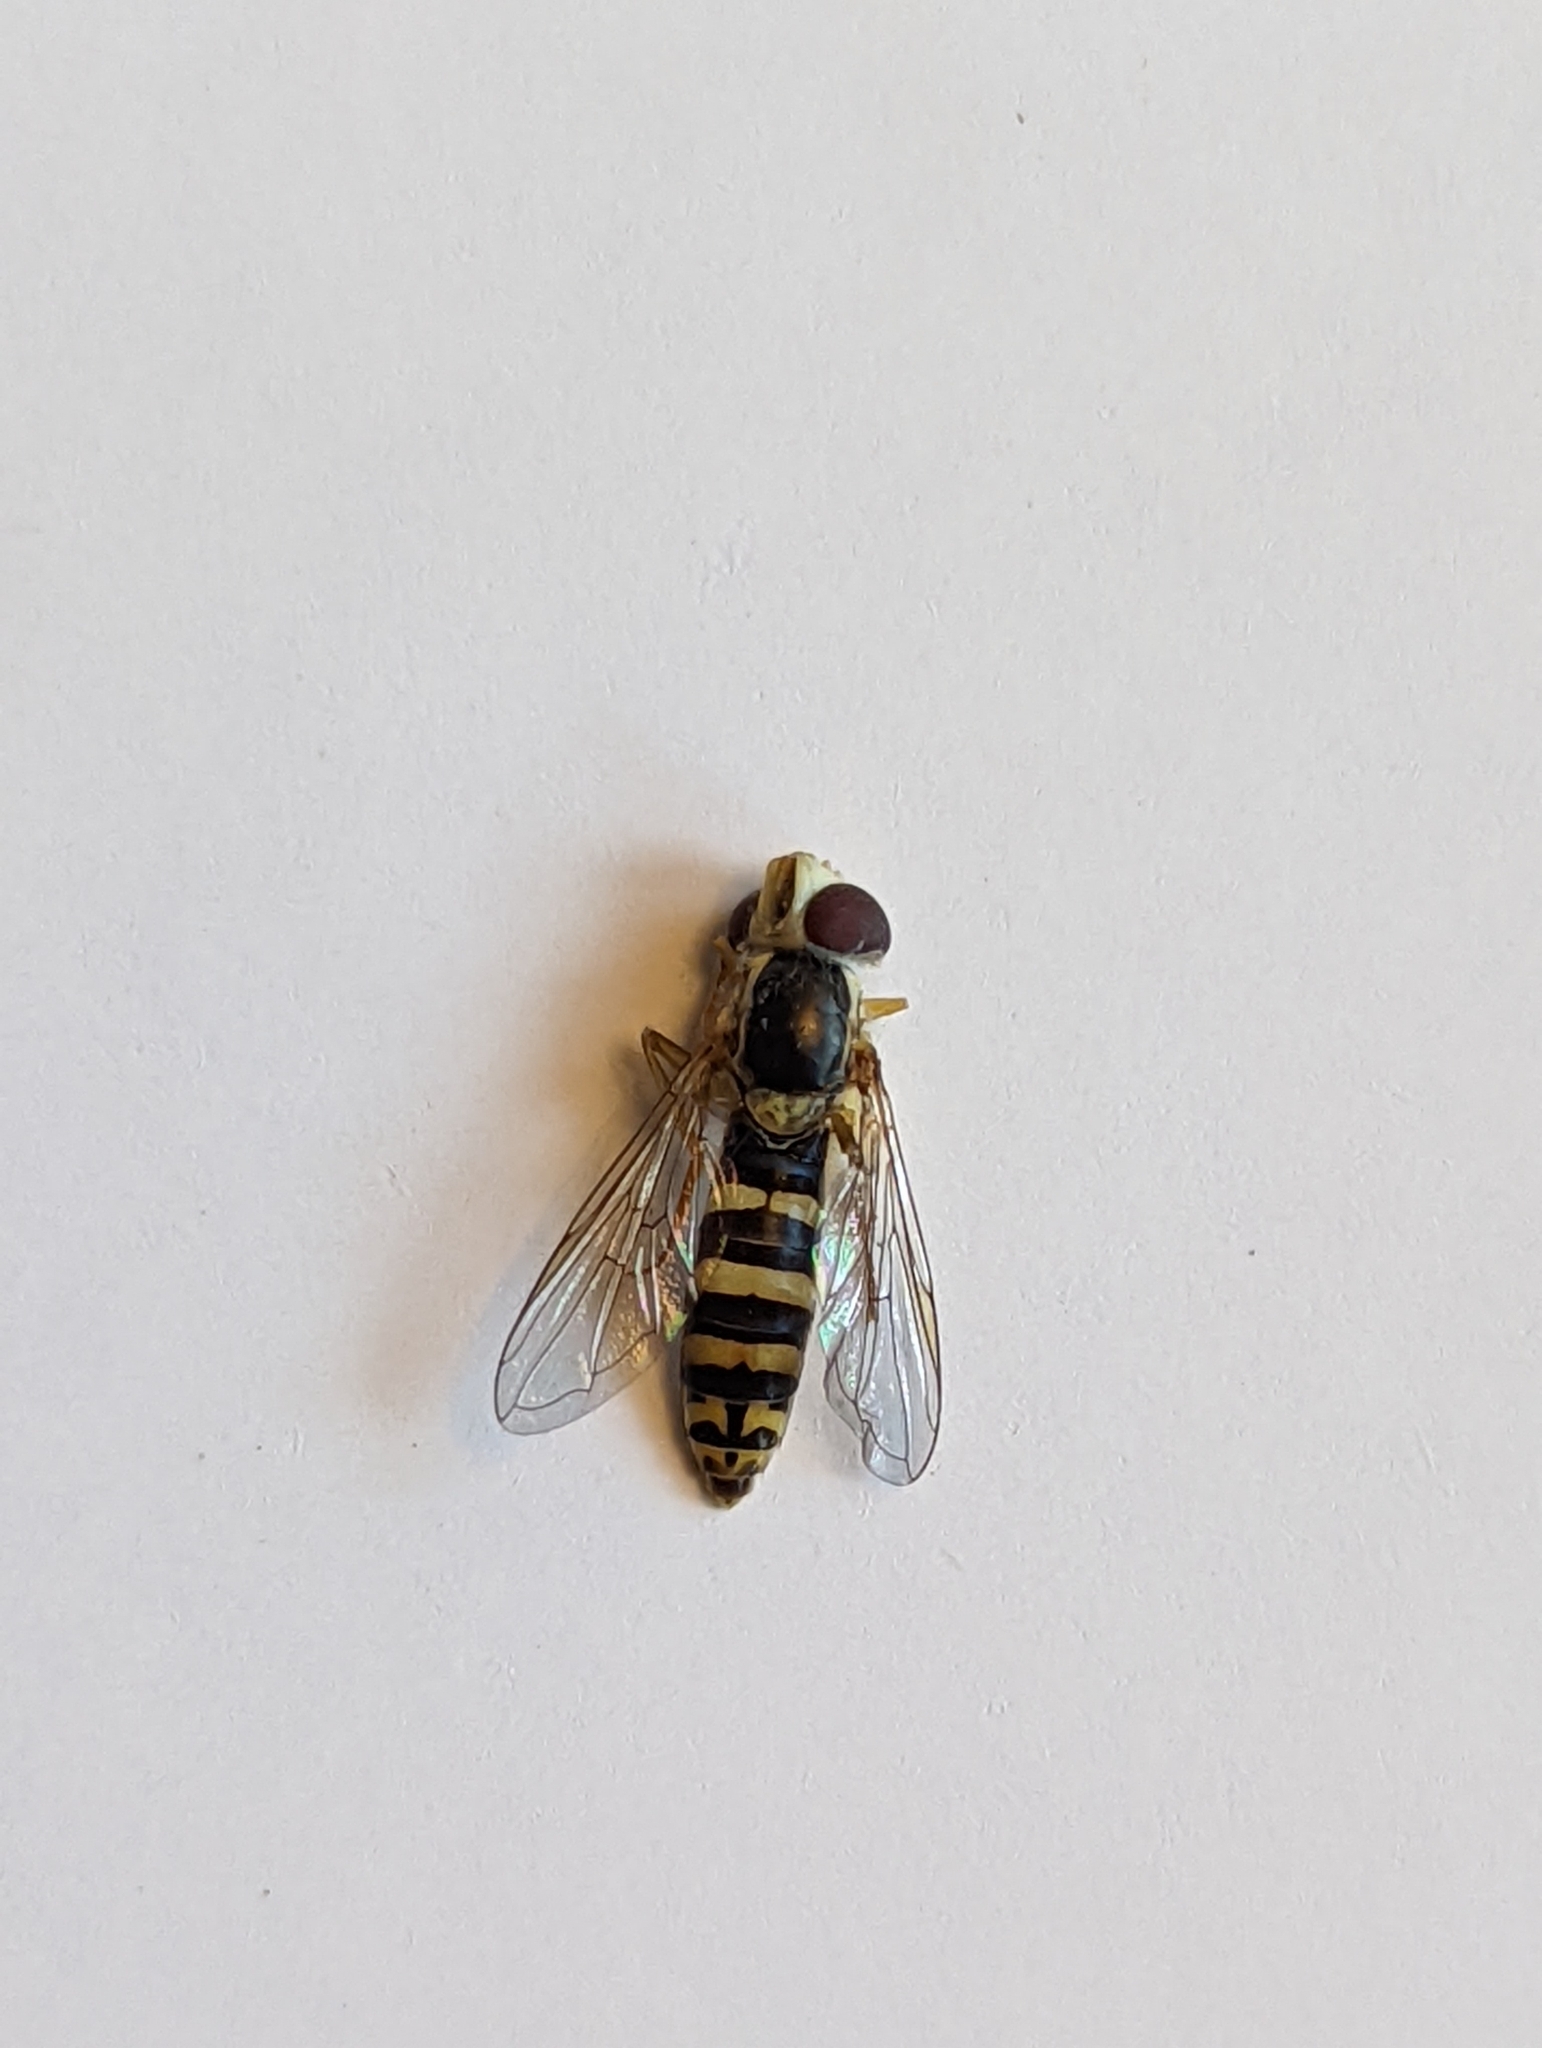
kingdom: Animalia
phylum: Arthropoda
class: Insecta
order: Diptera
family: Syrphidae
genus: Sphaerophoria
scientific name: Sphaerophoria
